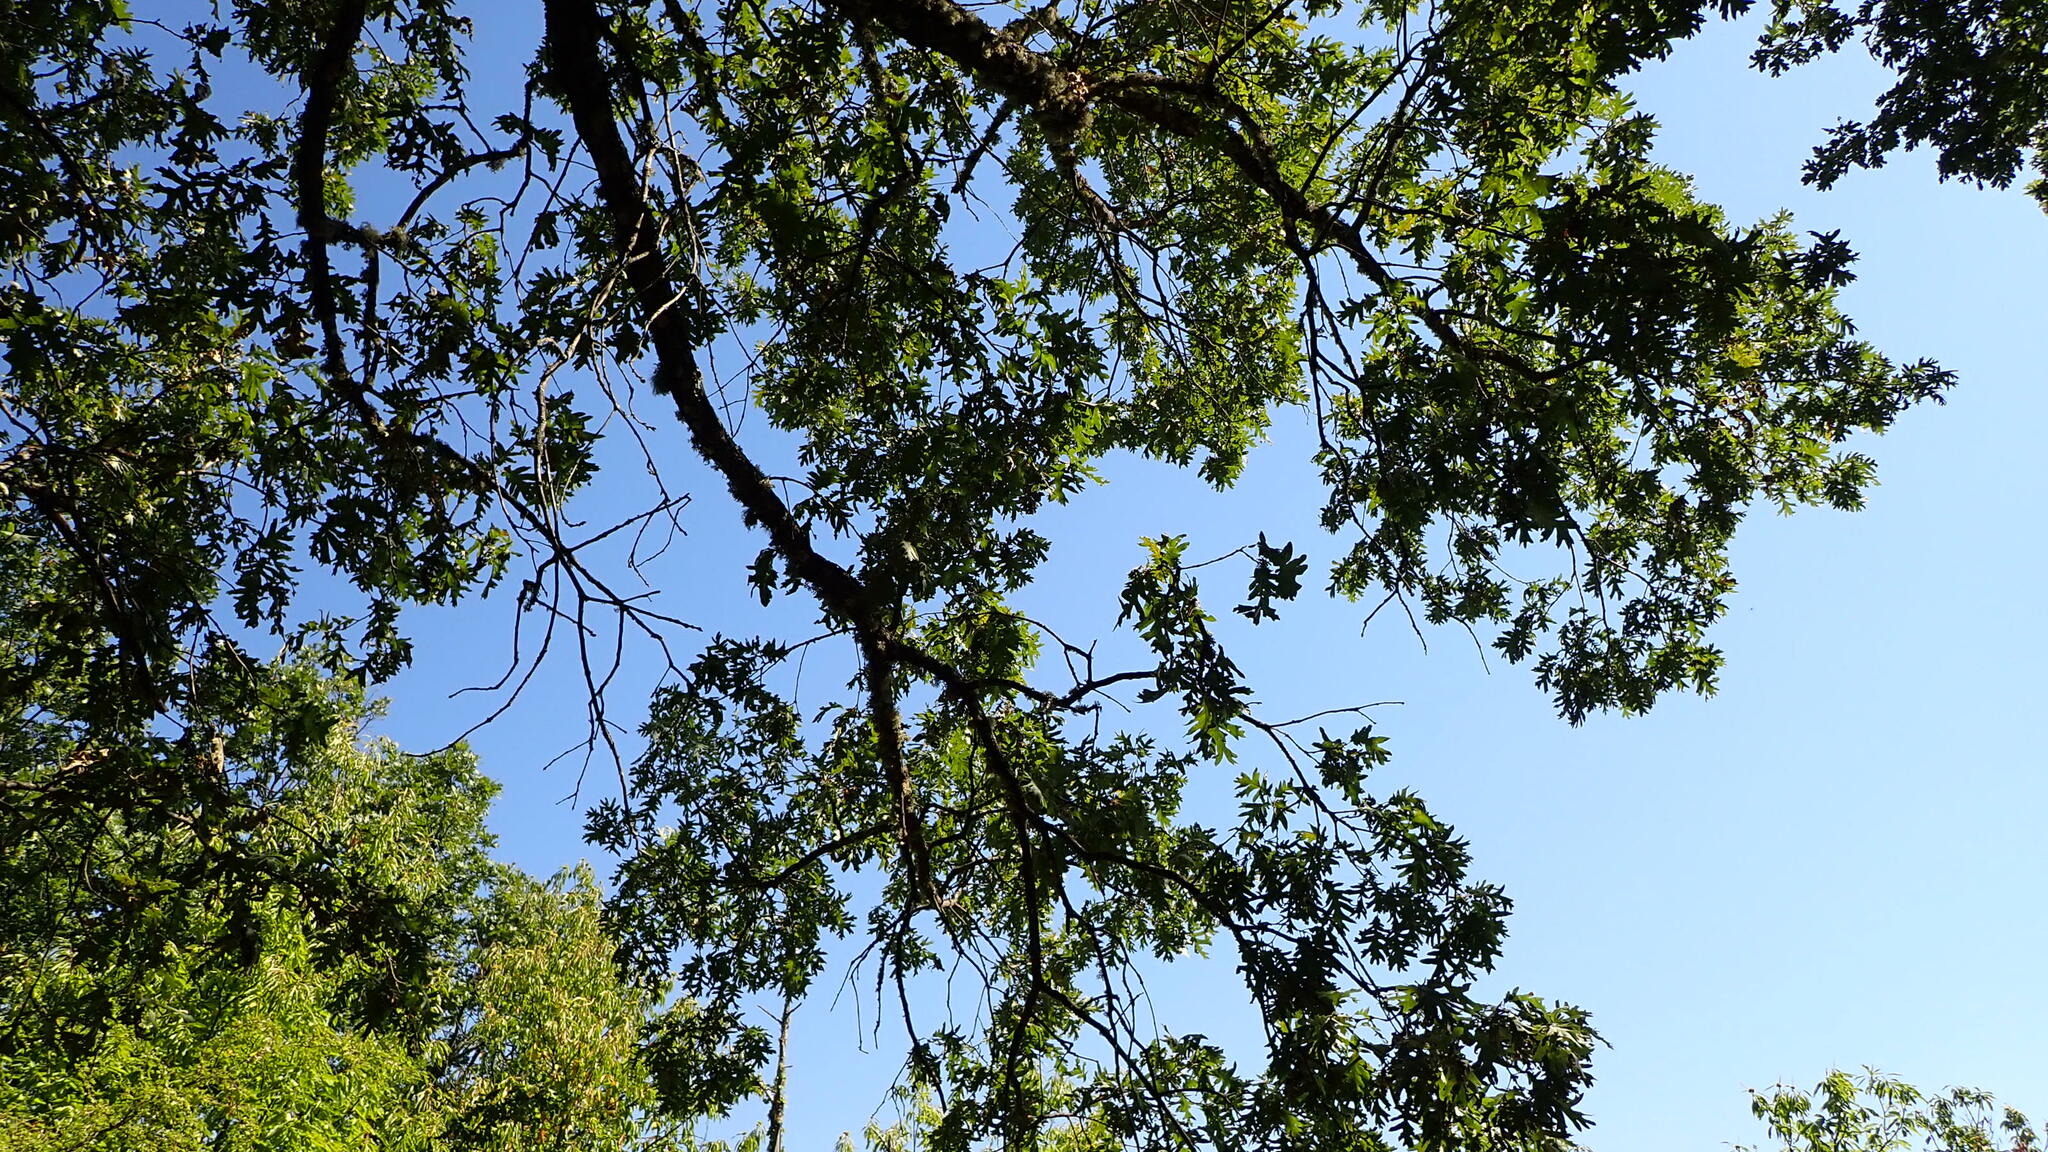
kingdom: Plantae
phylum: Tracheophyta
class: Magnoliopsida
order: Fagales
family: Fagaceae
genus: Quercus
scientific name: Quercus pyrenaica
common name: Pyrenean oak
